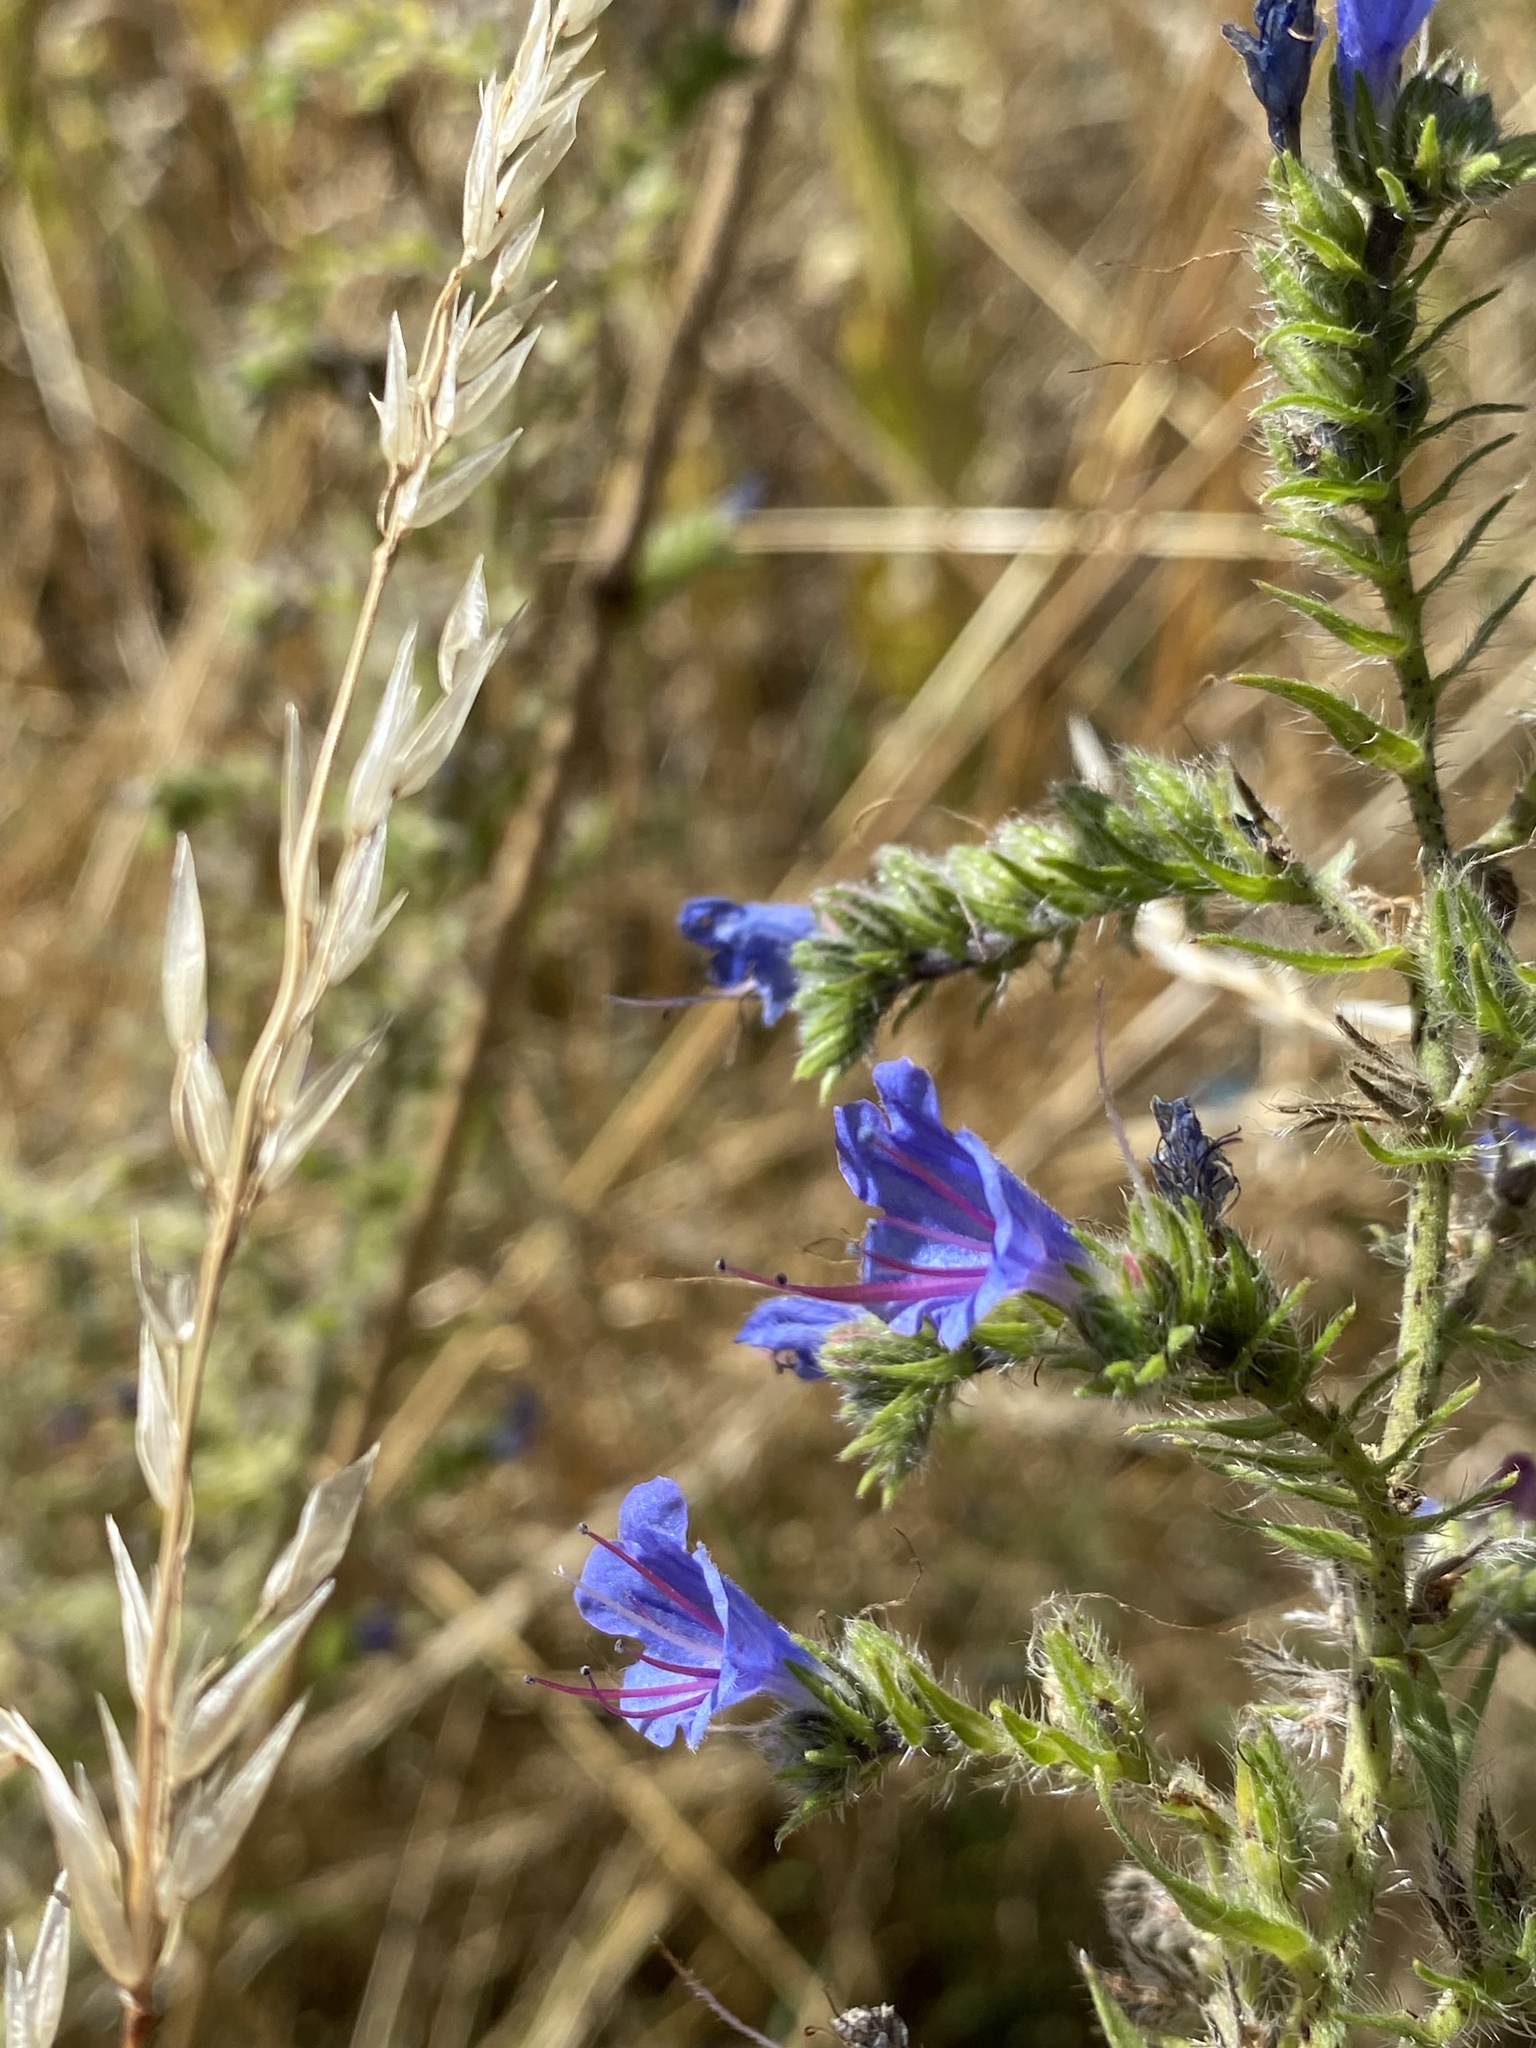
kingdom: Plantae
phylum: Tracheophyta
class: Magnoliopsida
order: Boraginales
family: Boraginaceae
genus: Echium
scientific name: Echium vulgare
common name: Common viper's bugloss
